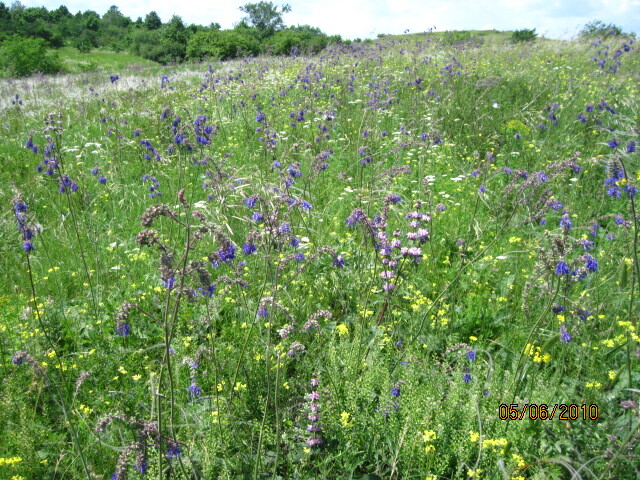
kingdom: Plantae
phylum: Tracheophyta
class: Magnoliopsida
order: Lamiales
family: Lamiaceae
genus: Salvia
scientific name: Salvia nutans
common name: Nodding sage
